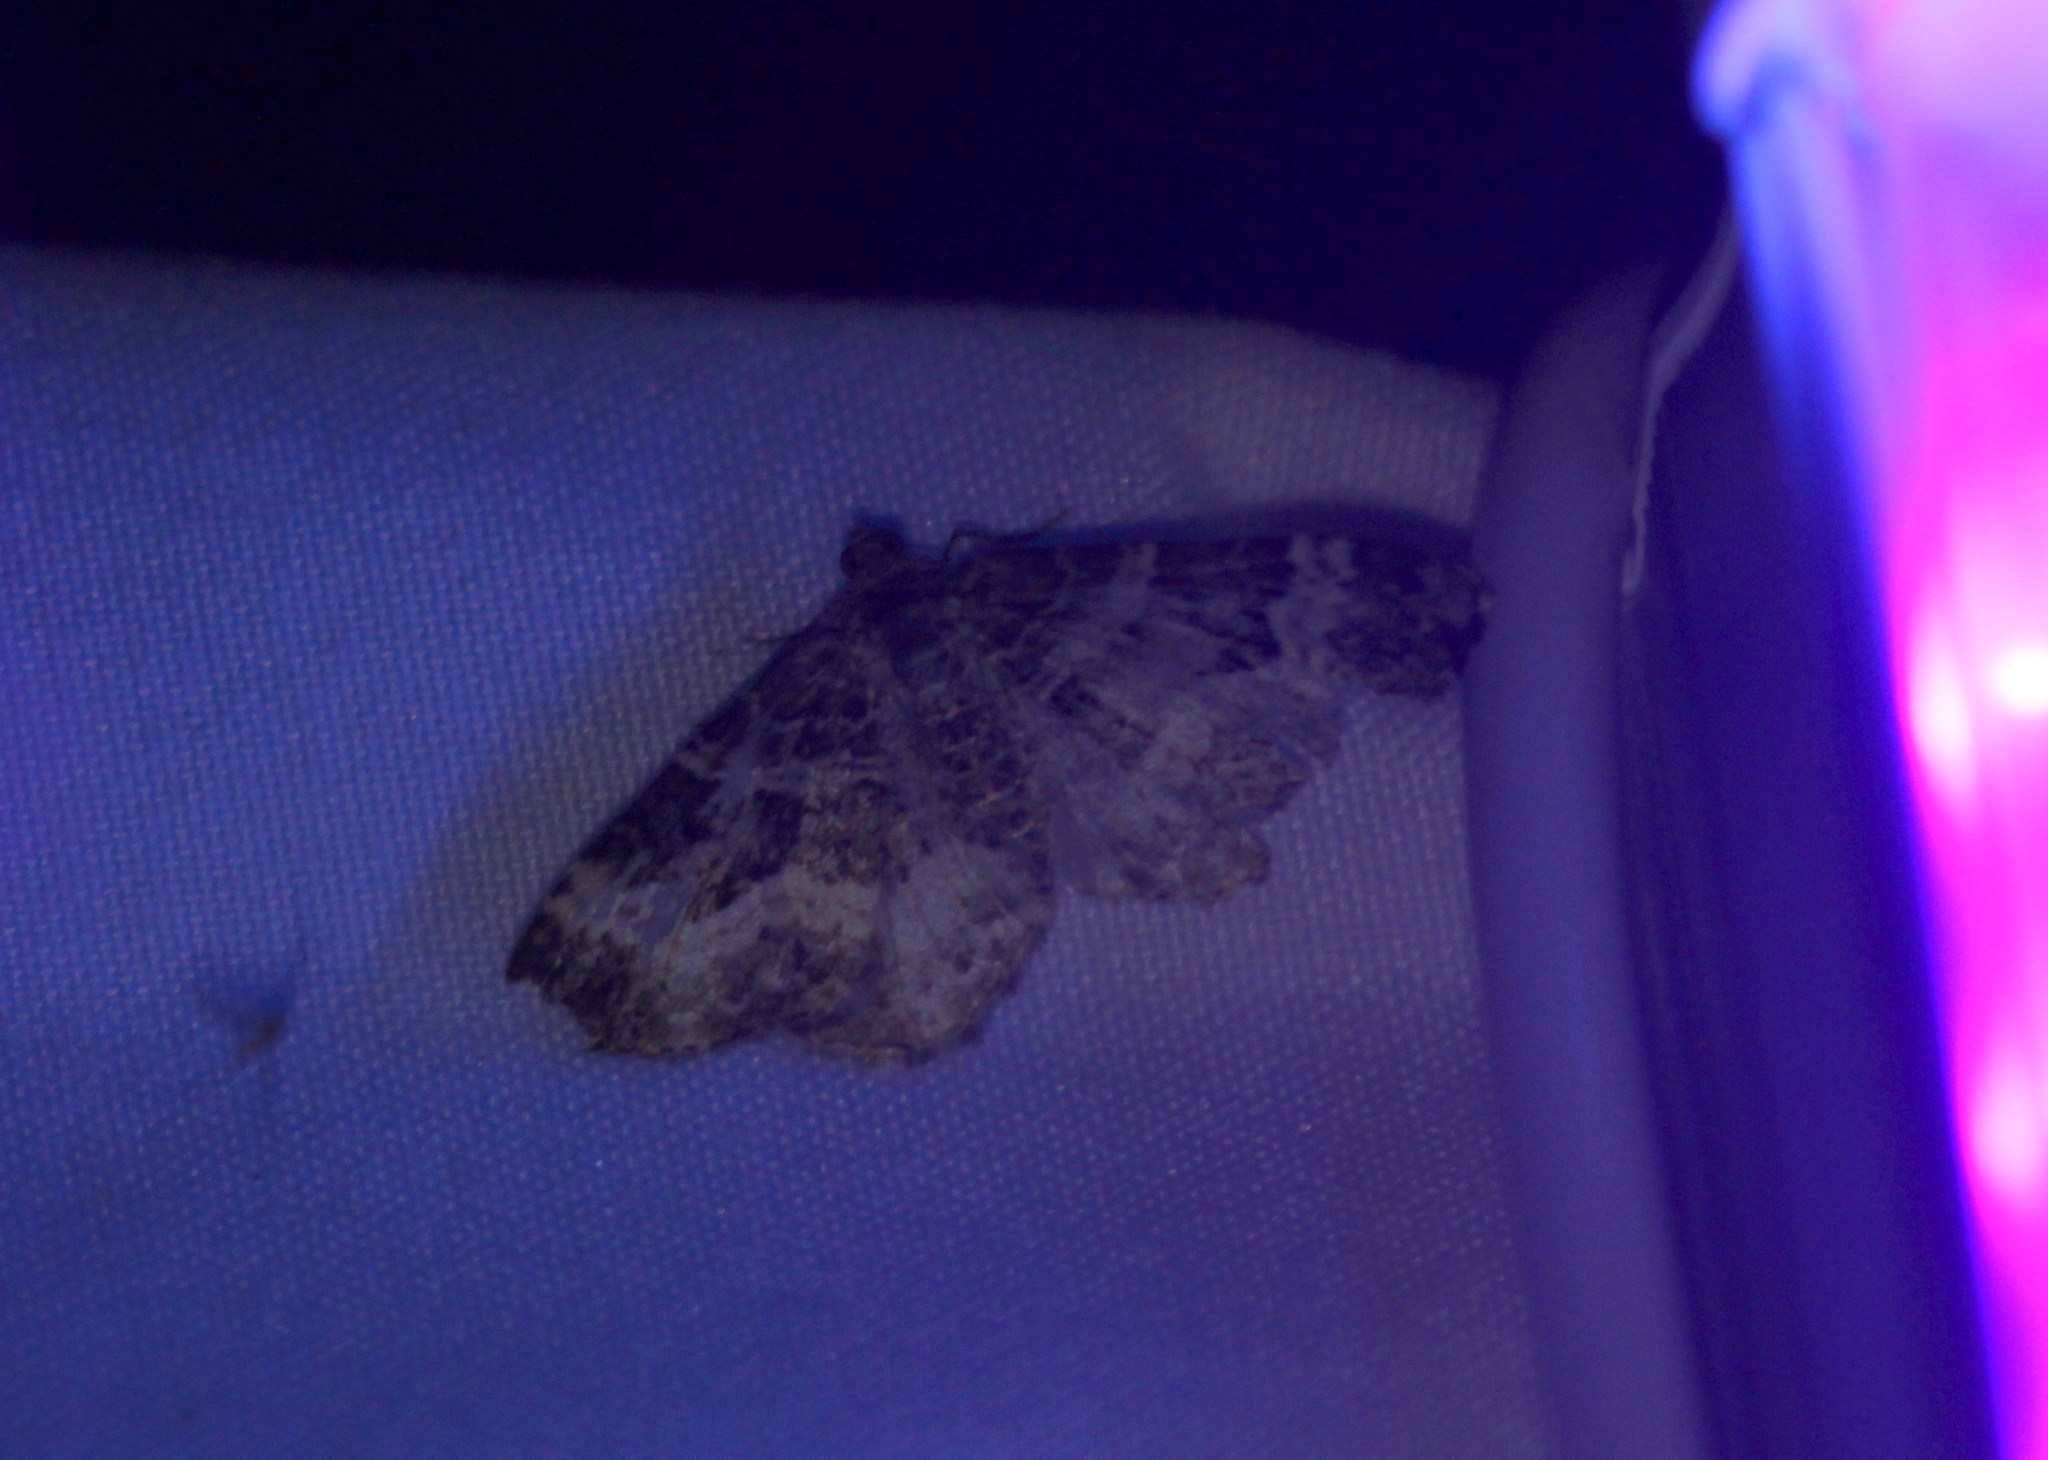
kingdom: Animalia
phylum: Arthropoda
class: Insecta
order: Lepidoptera
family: Geometridae
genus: Epirrhoe
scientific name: Epirrhoe alternata
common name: Common carpet
